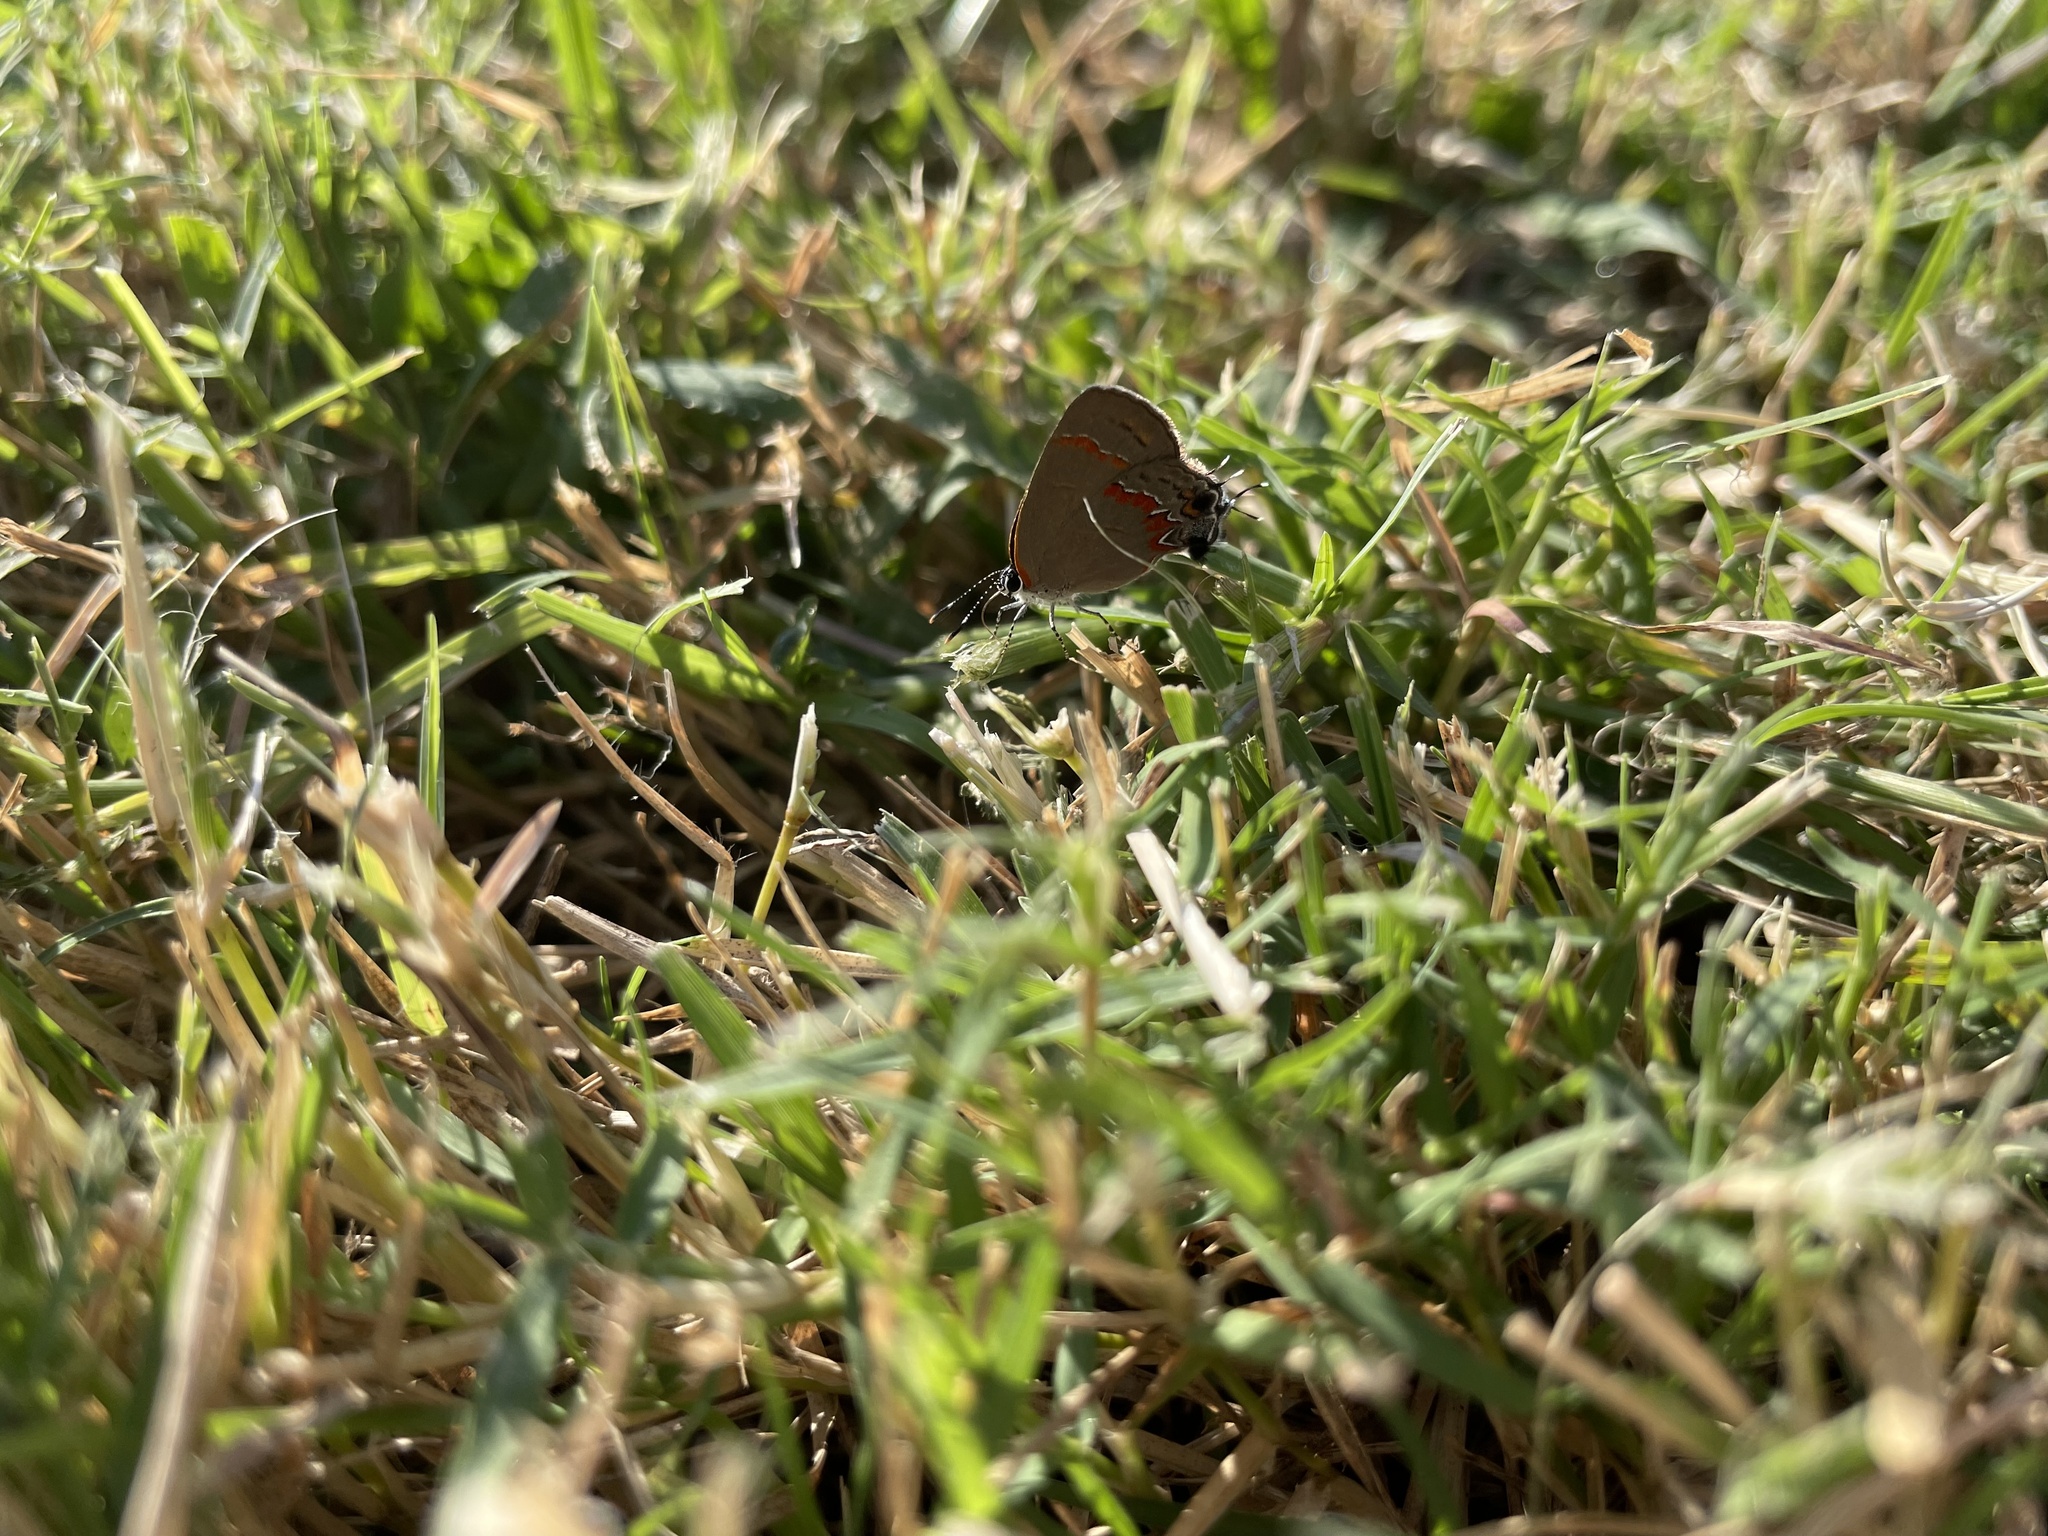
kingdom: Animalia
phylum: Arthropoda
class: Insecta
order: Lepidoptera
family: Lycaenidae
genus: Calycopis
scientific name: Calycopis cecrops
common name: Red-banded hairstreak
